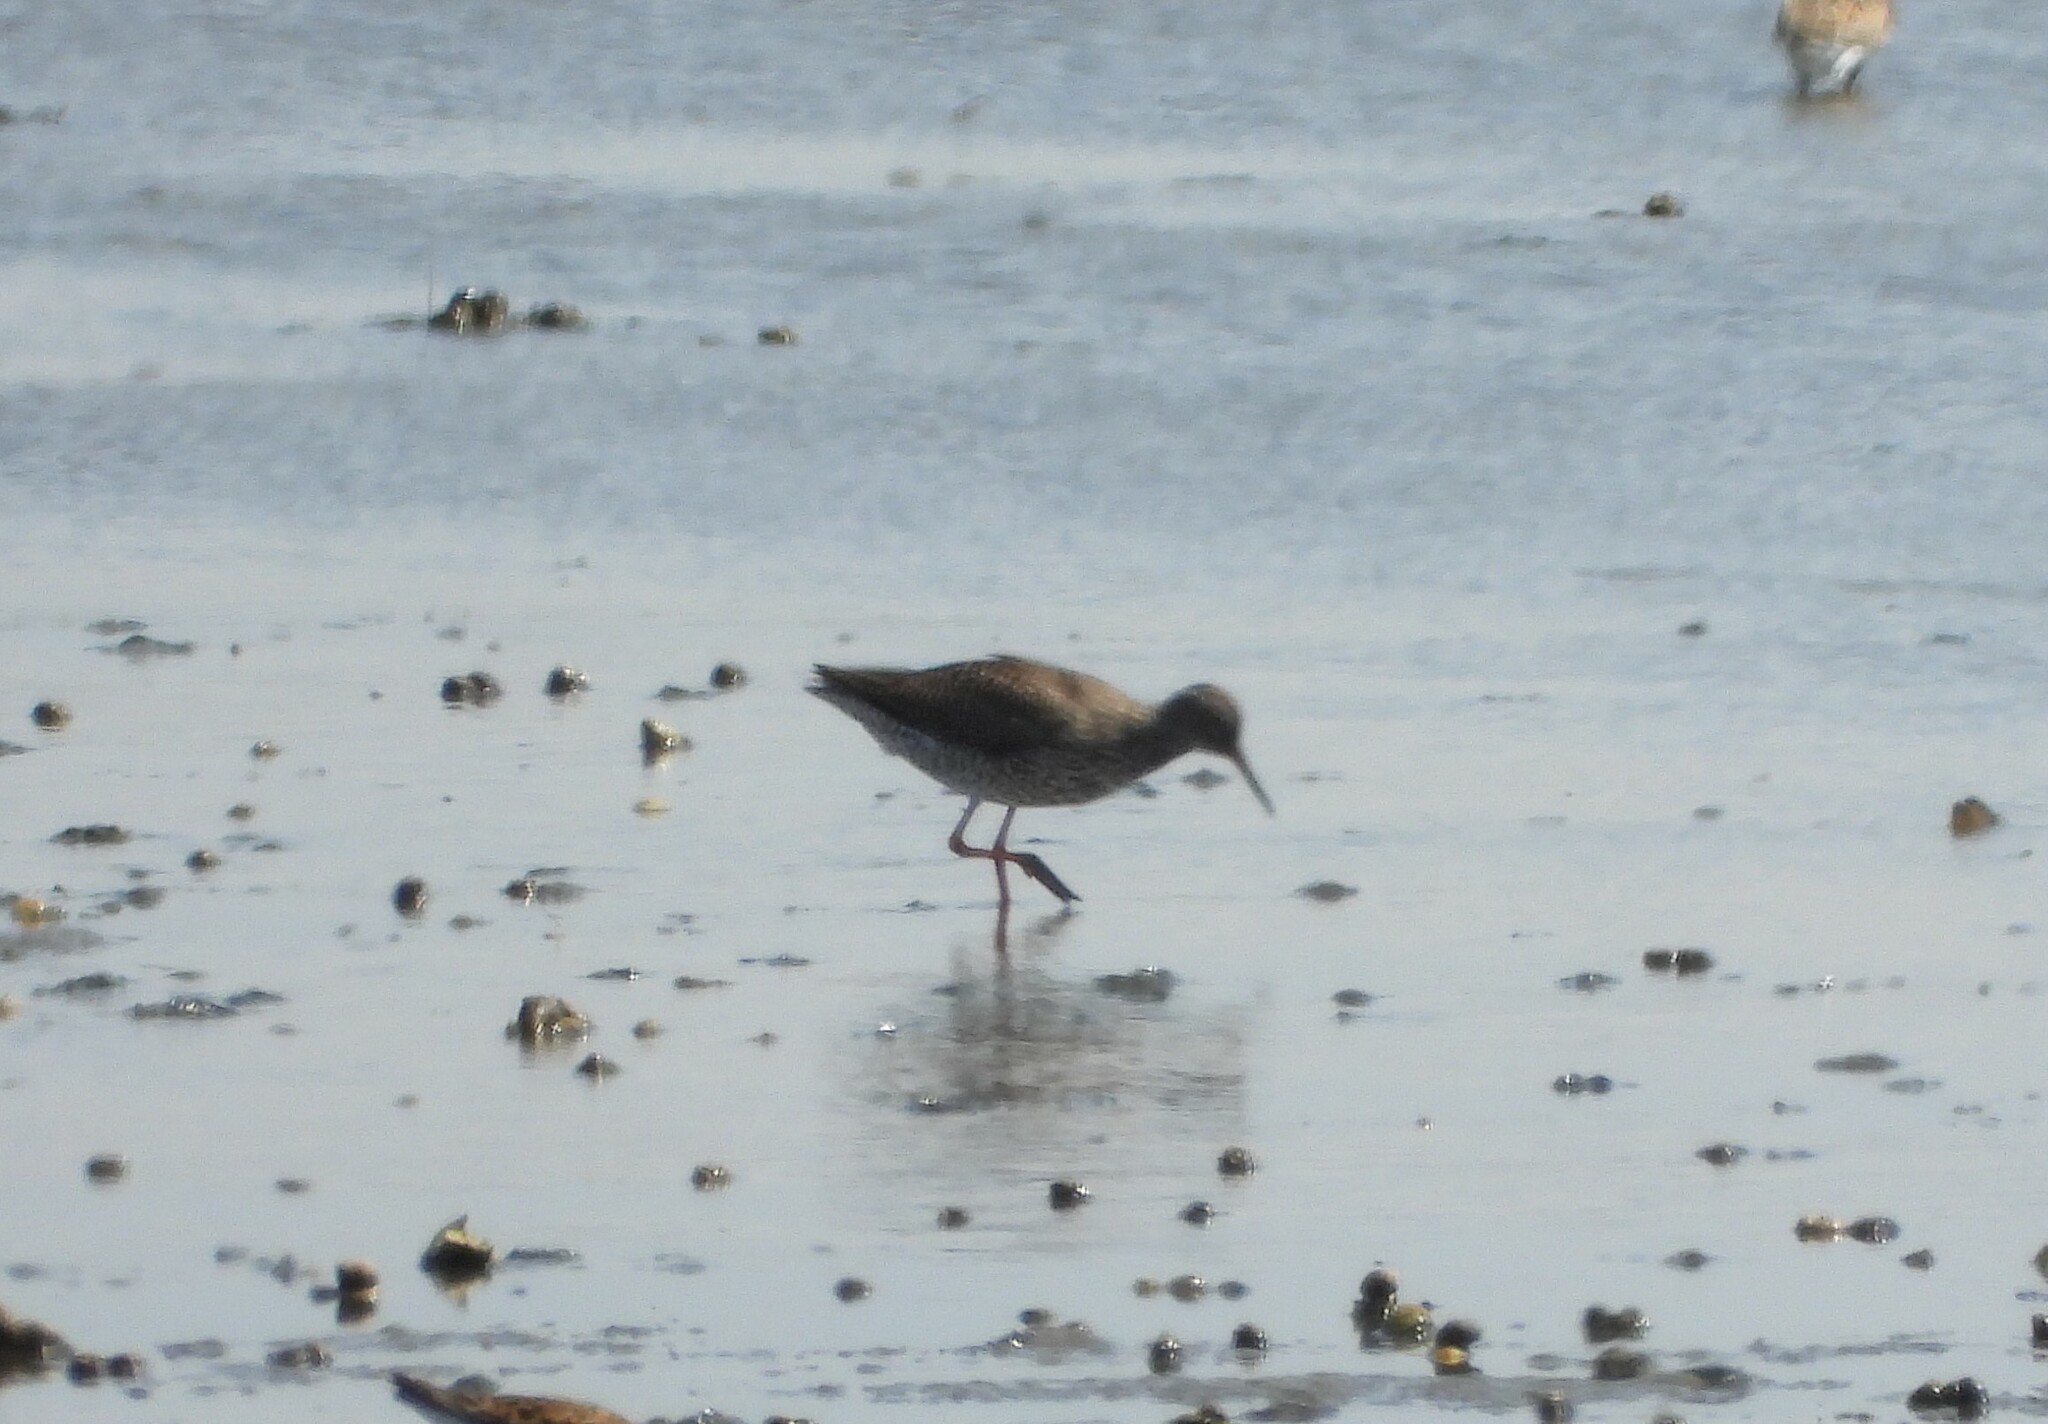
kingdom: Animalia
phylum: Chordata
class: Aves
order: Charadriiformes
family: Scolopacidae
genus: Tringa
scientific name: Tringa totanus
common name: Common redshank
